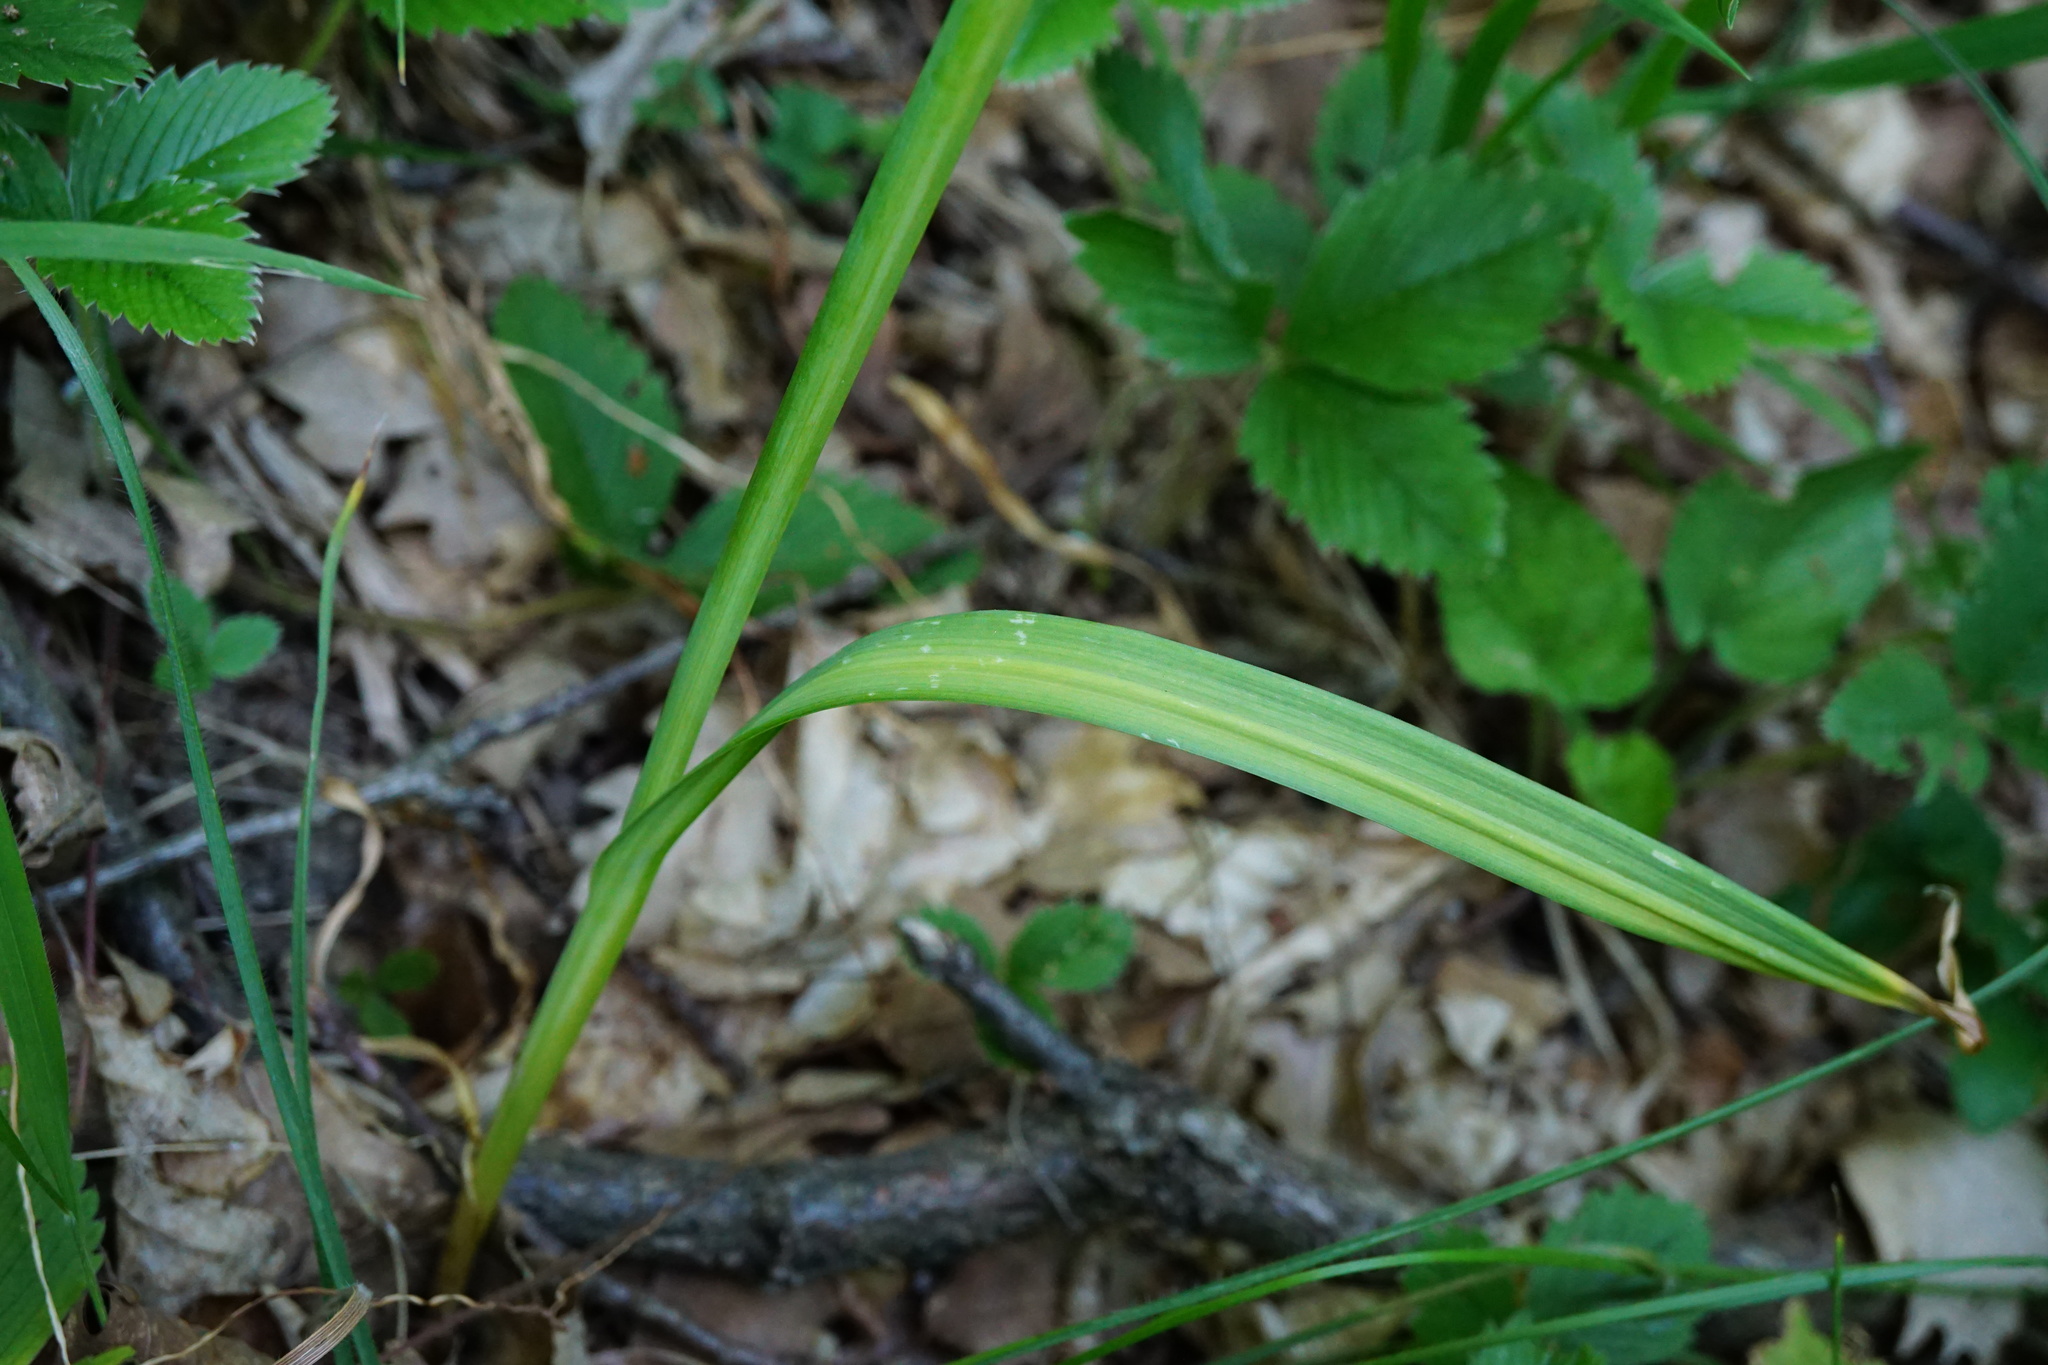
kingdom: Plantae
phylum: Tracheophyta
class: Liliopsida
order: Asparagales
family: Amaryllidaceae
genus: Allium
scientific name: Allium scorodoprasum
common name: Sand leek
